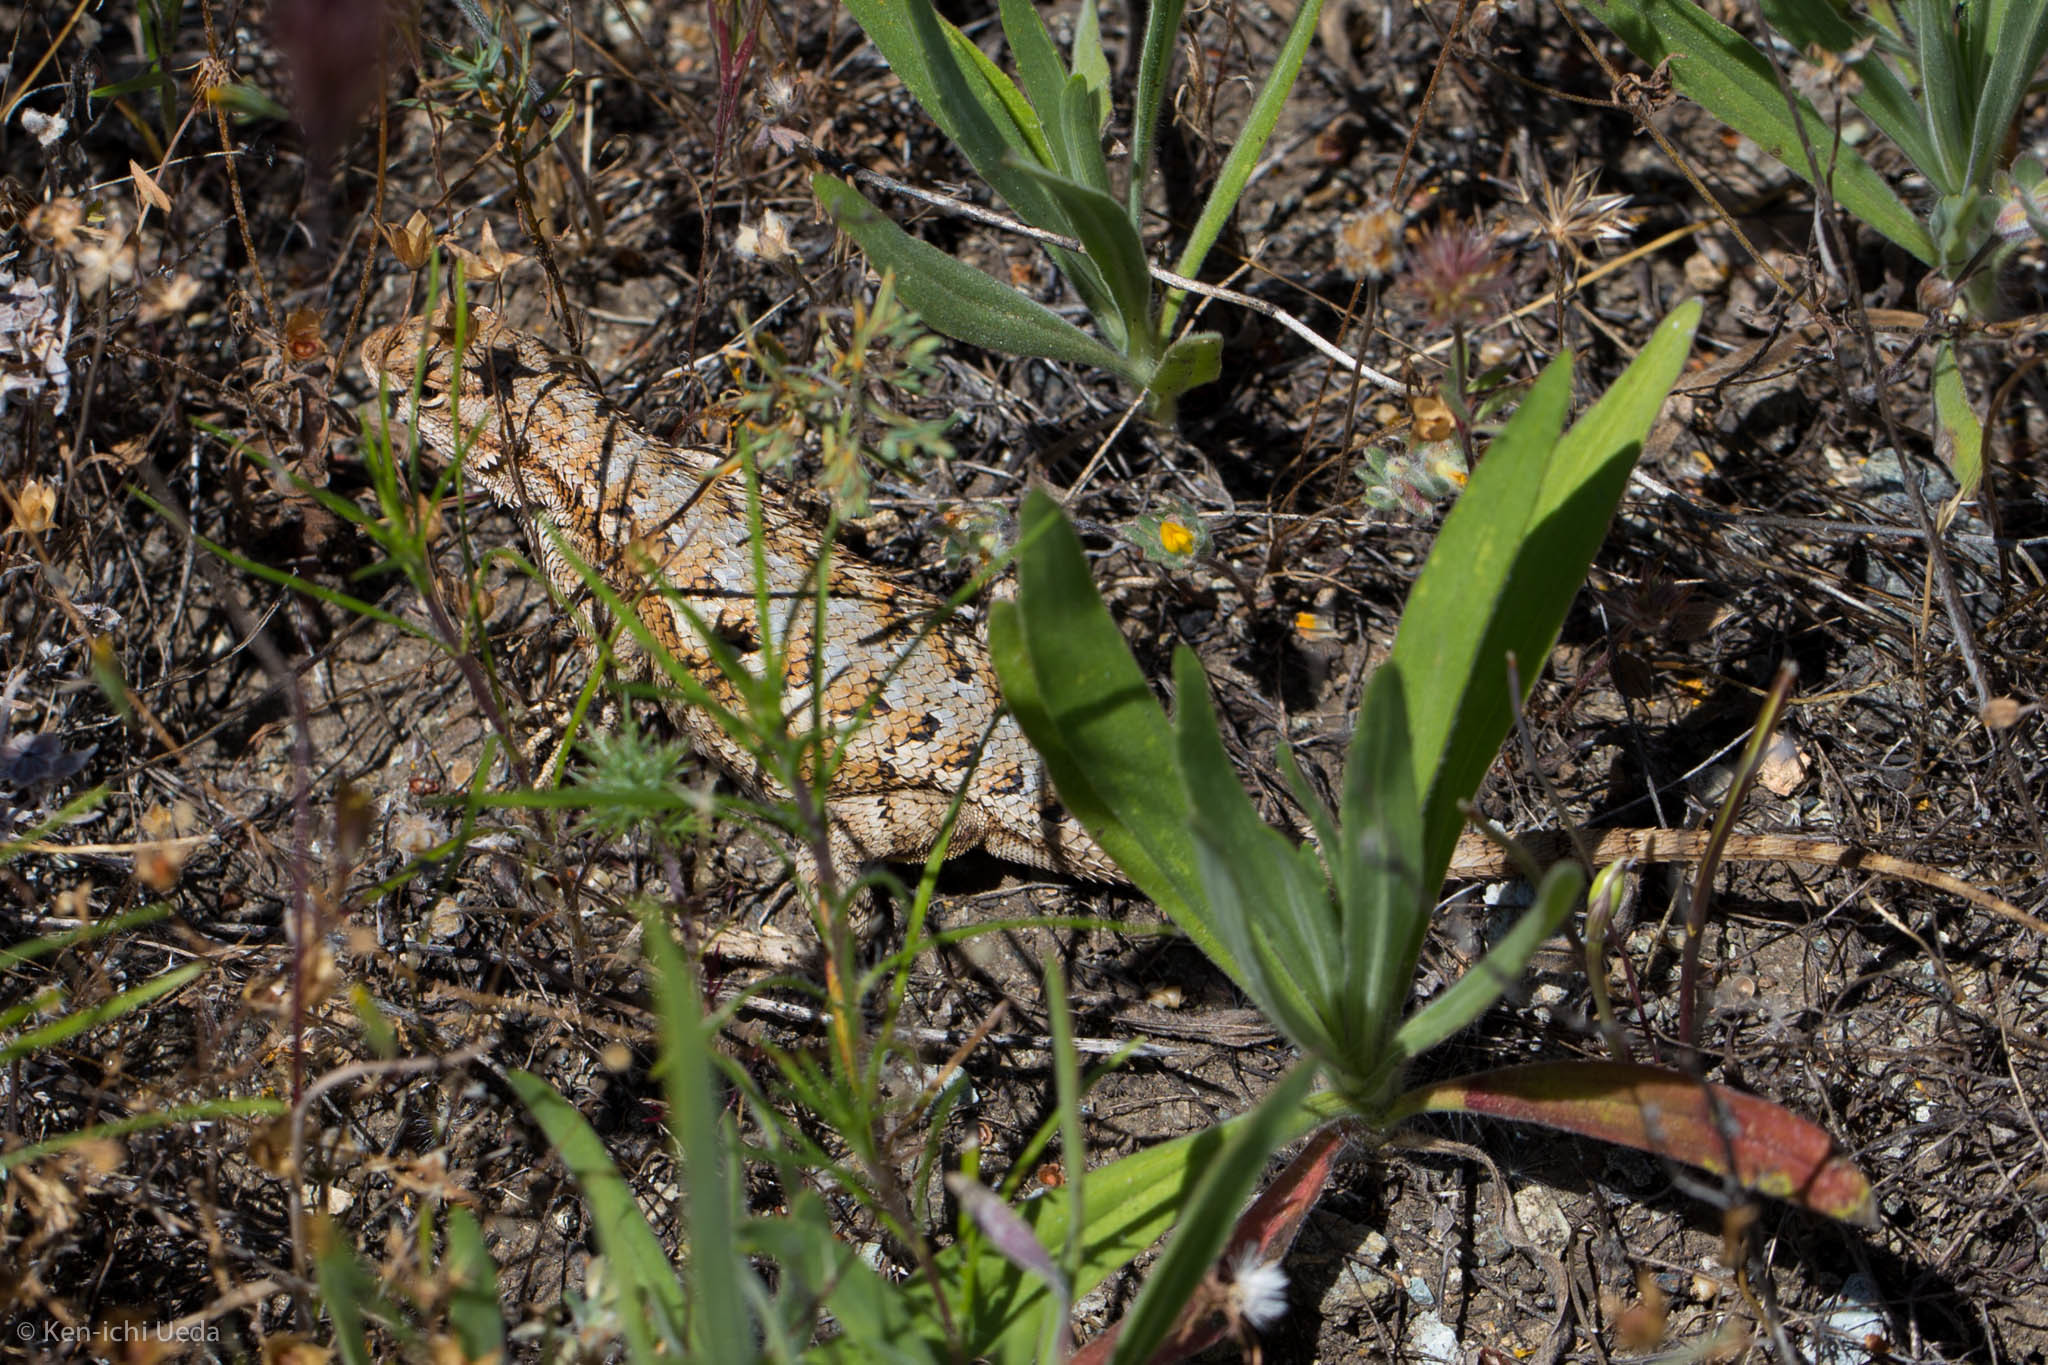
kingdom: Animalia
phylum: Chordata
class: Squamata
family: Phrynosomatidae
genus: Sceloporus
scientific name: Sceloporus occidentalis
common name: Western fence lizard
